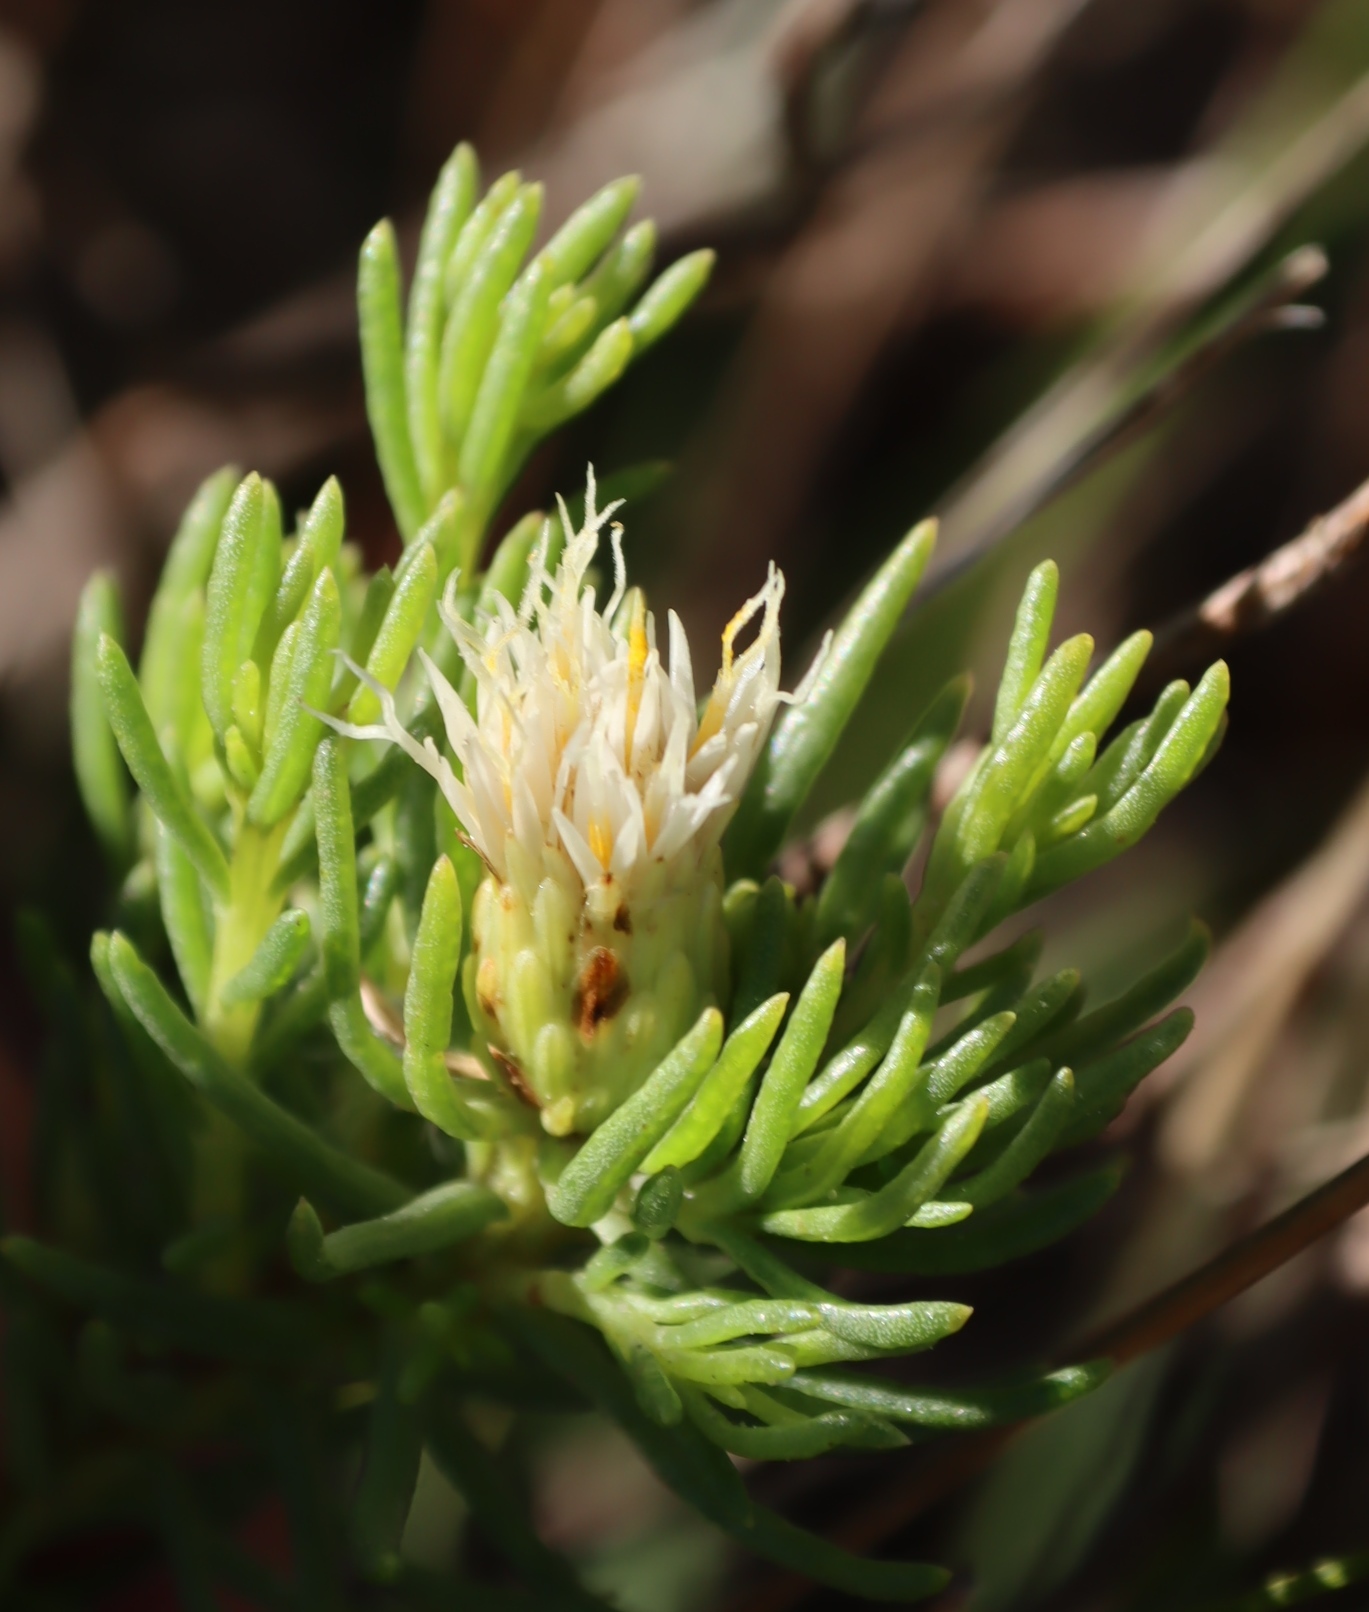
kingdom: Plantae
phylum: Tracheophyta
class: Magnoliopsida
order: Asterales
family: Asteraceae
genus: Pteronia
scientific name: Pteronia teretifolia
